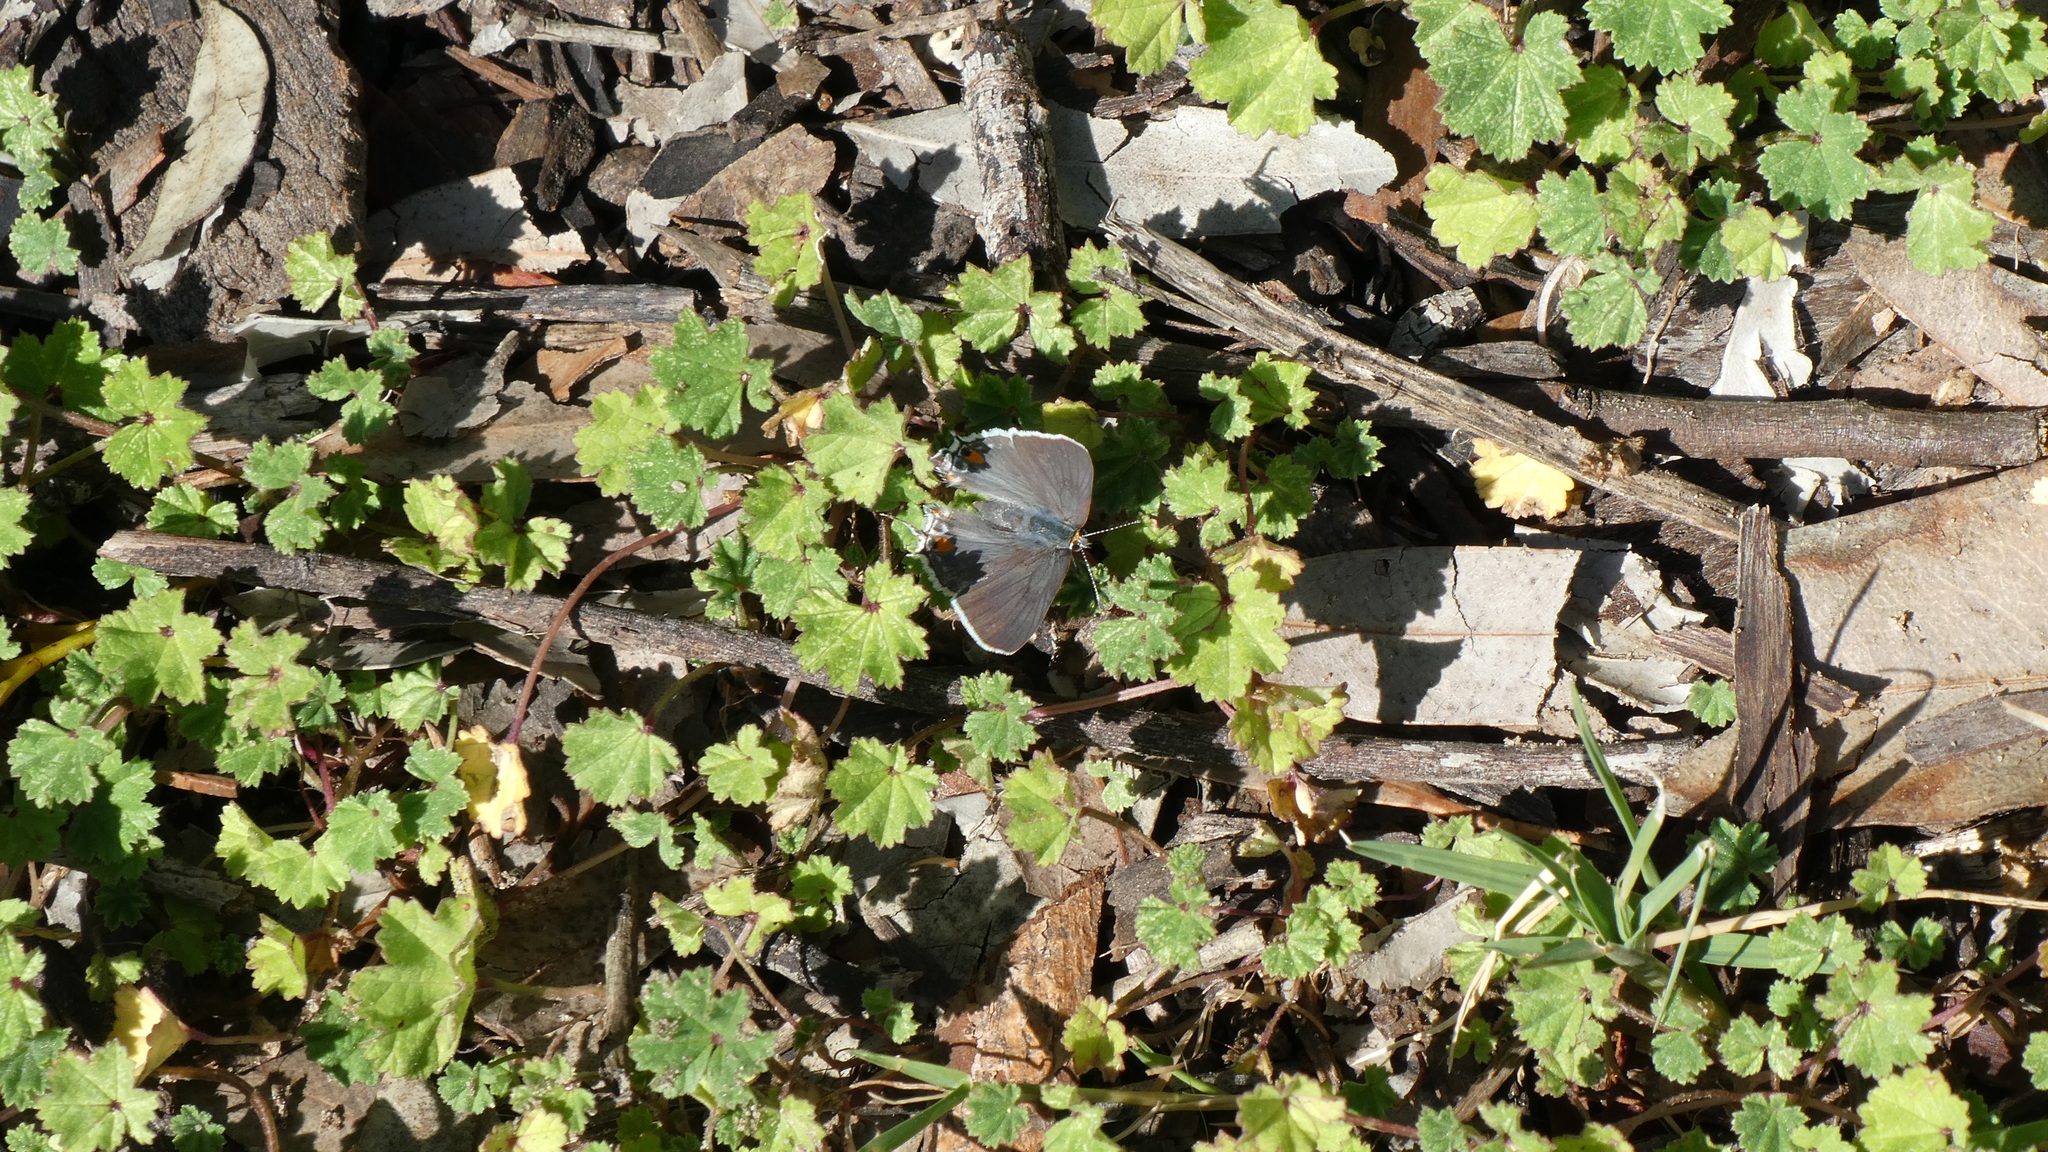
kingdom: Animalia
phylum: Arthropoda
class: Insecta
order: Lepidoptera
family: Lycaenidae
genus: Strymon
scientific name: Strymon melinus
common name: Gray hairstreak
